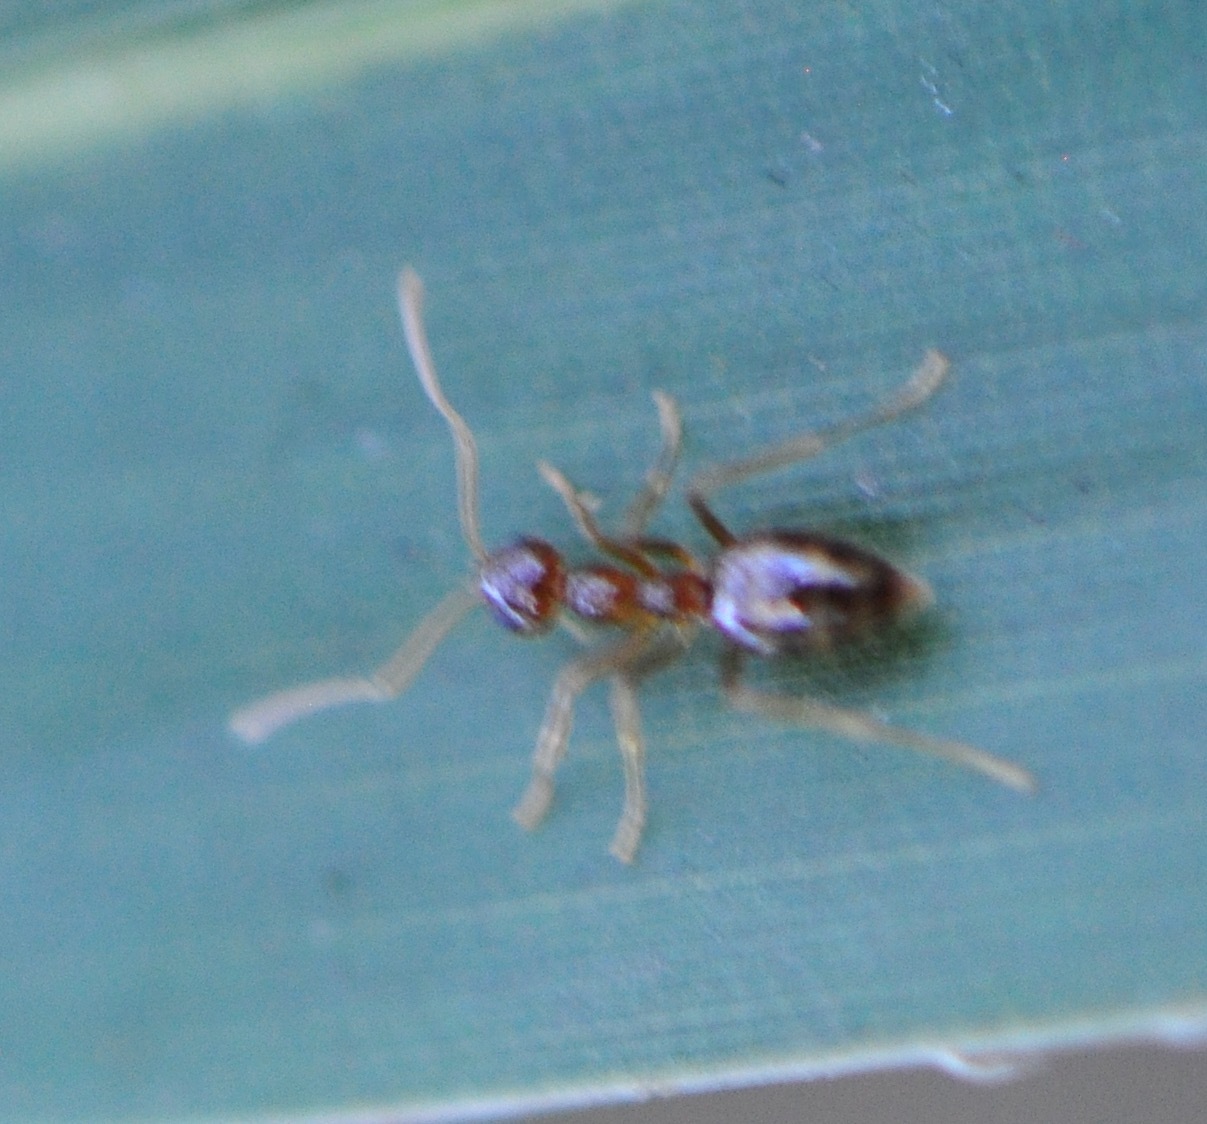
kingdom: Animalia
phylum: Arthropoda
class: Insecta
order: Hymenoptera
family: Formicidae
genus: Prenolepis
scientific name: Prenolepis imparis
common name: Small honey ant
